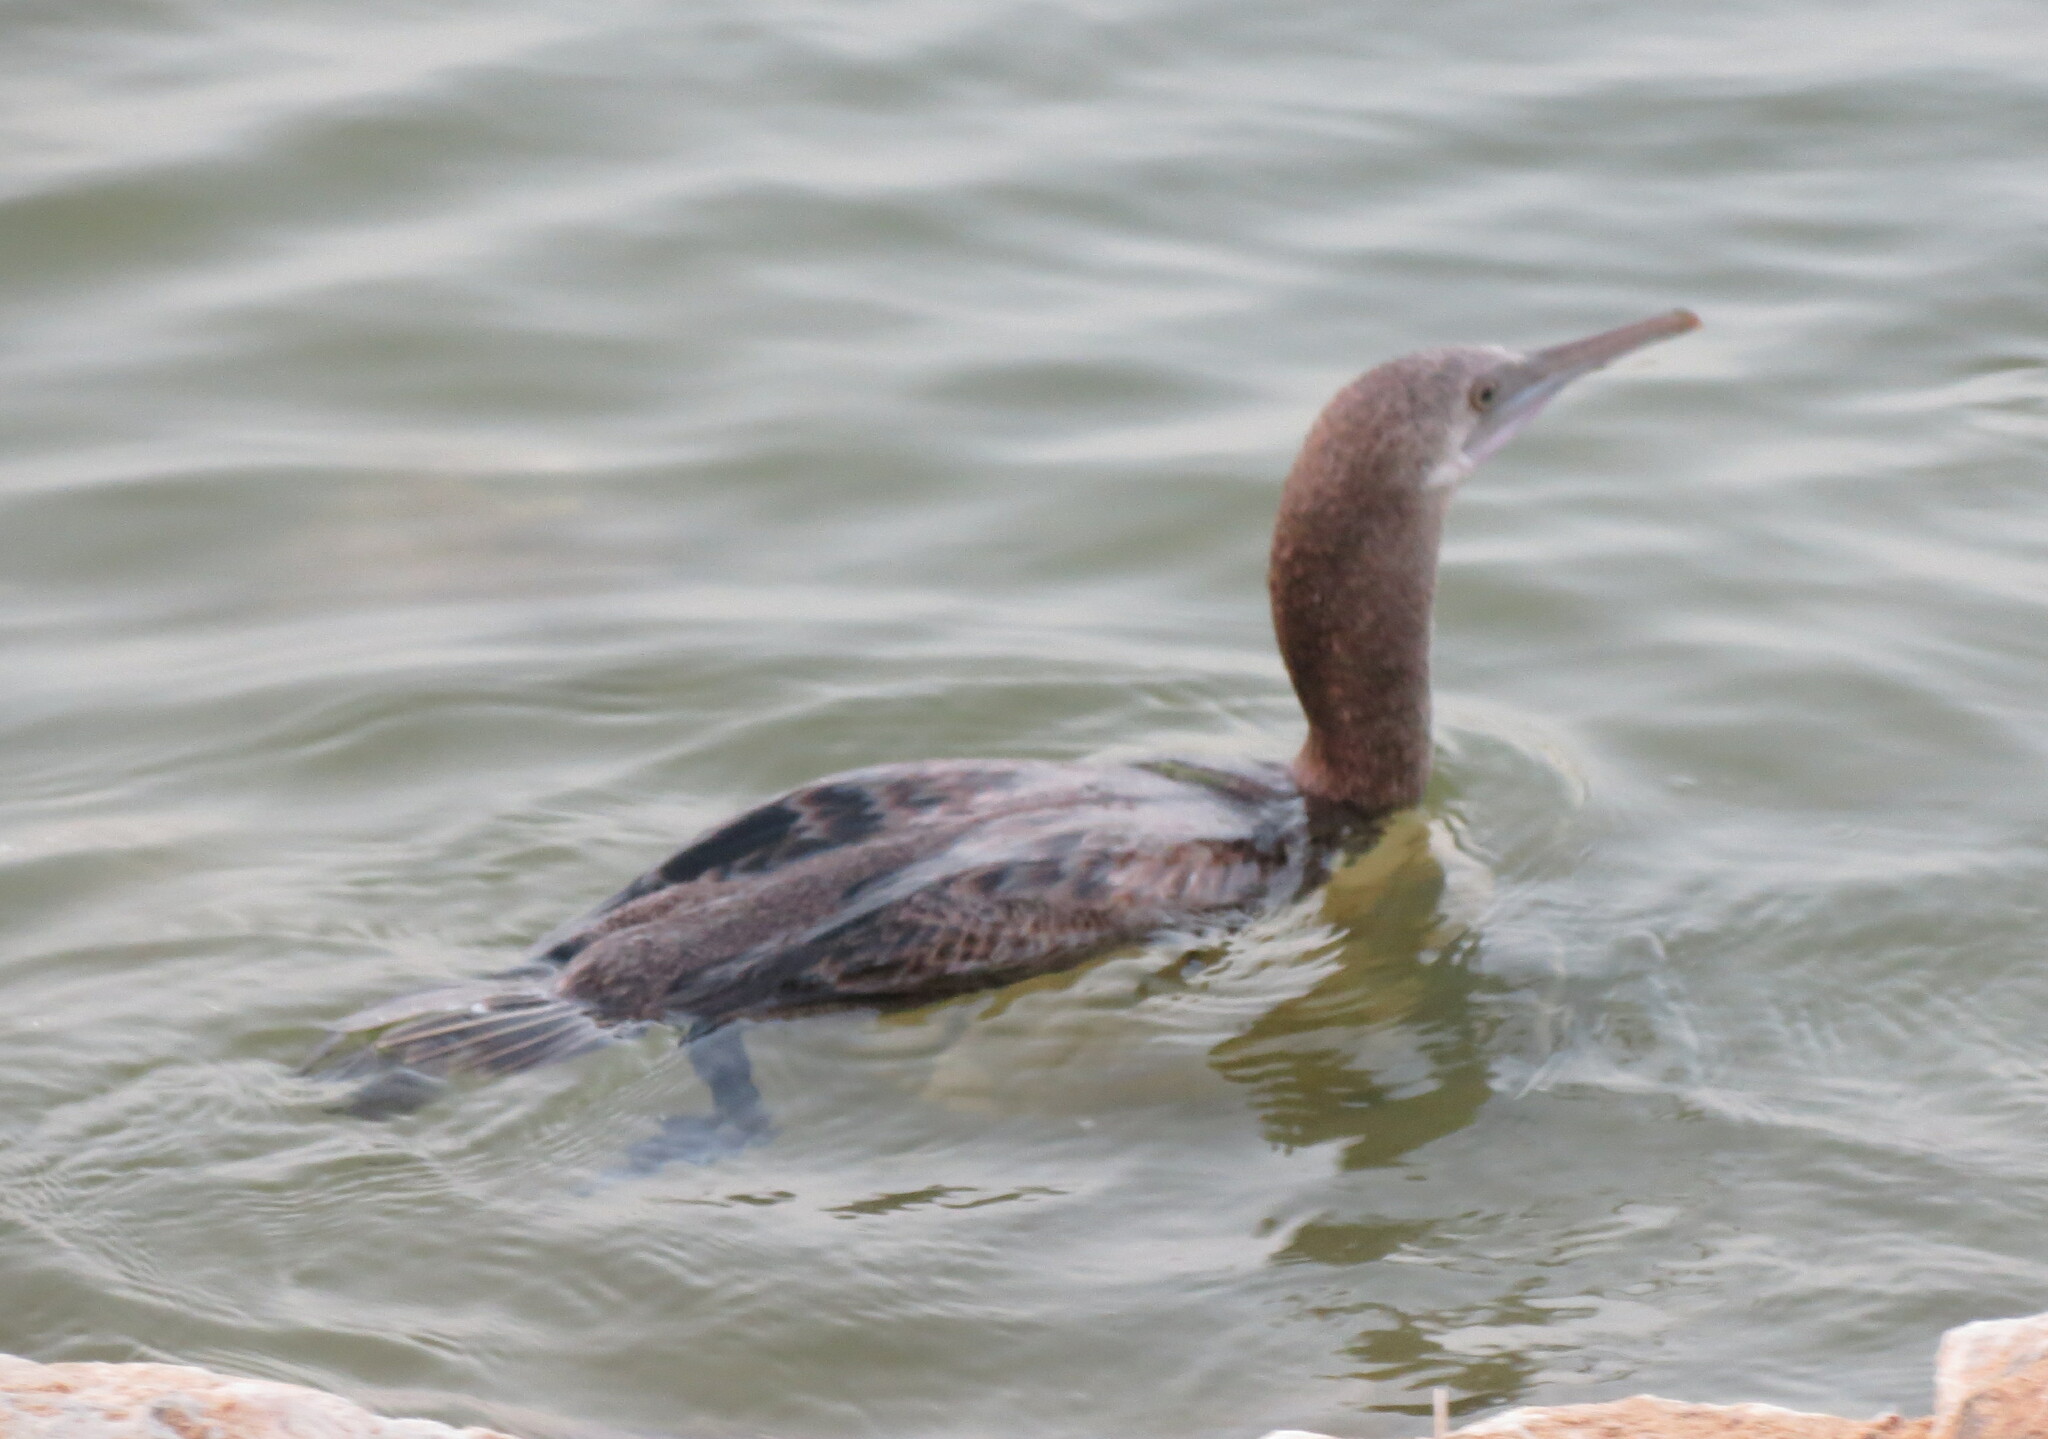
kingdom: Animalia
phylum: Chordata
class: Aves
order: Suliformes
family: Phalacrocoracidae
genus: Phalacrocorax
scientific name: Phalacrocorax nigrogularis
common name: Socotra cormorant
